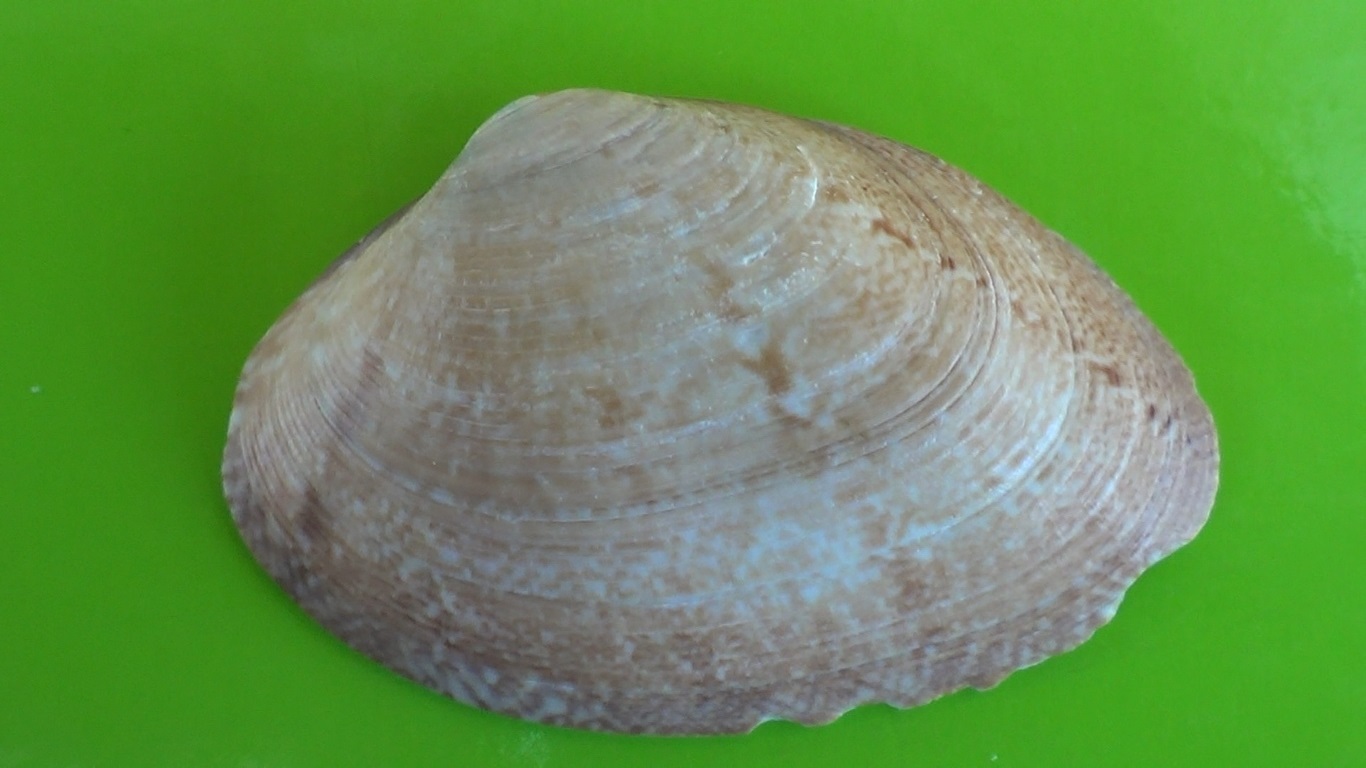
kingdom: Animalia
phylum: Mollusca
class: Bivalvia
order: Venerida
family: Veneridae
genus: Polititapes
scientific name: Polititapes aureus
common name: Golden carpet shell
